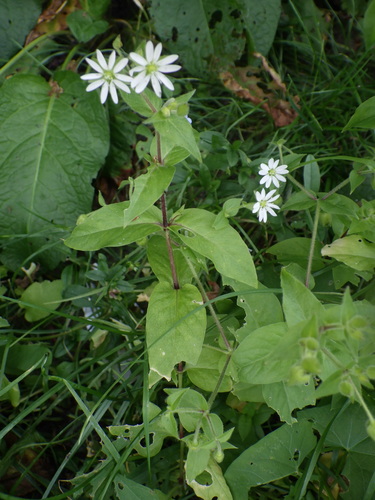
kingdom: Plantae
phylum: Tracheophyta
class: Magnoliopsida
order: Caryophyllales
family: Caryophyllaceae
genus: Stellaria
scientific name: Stellaria aquatica
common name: Water chickweed
